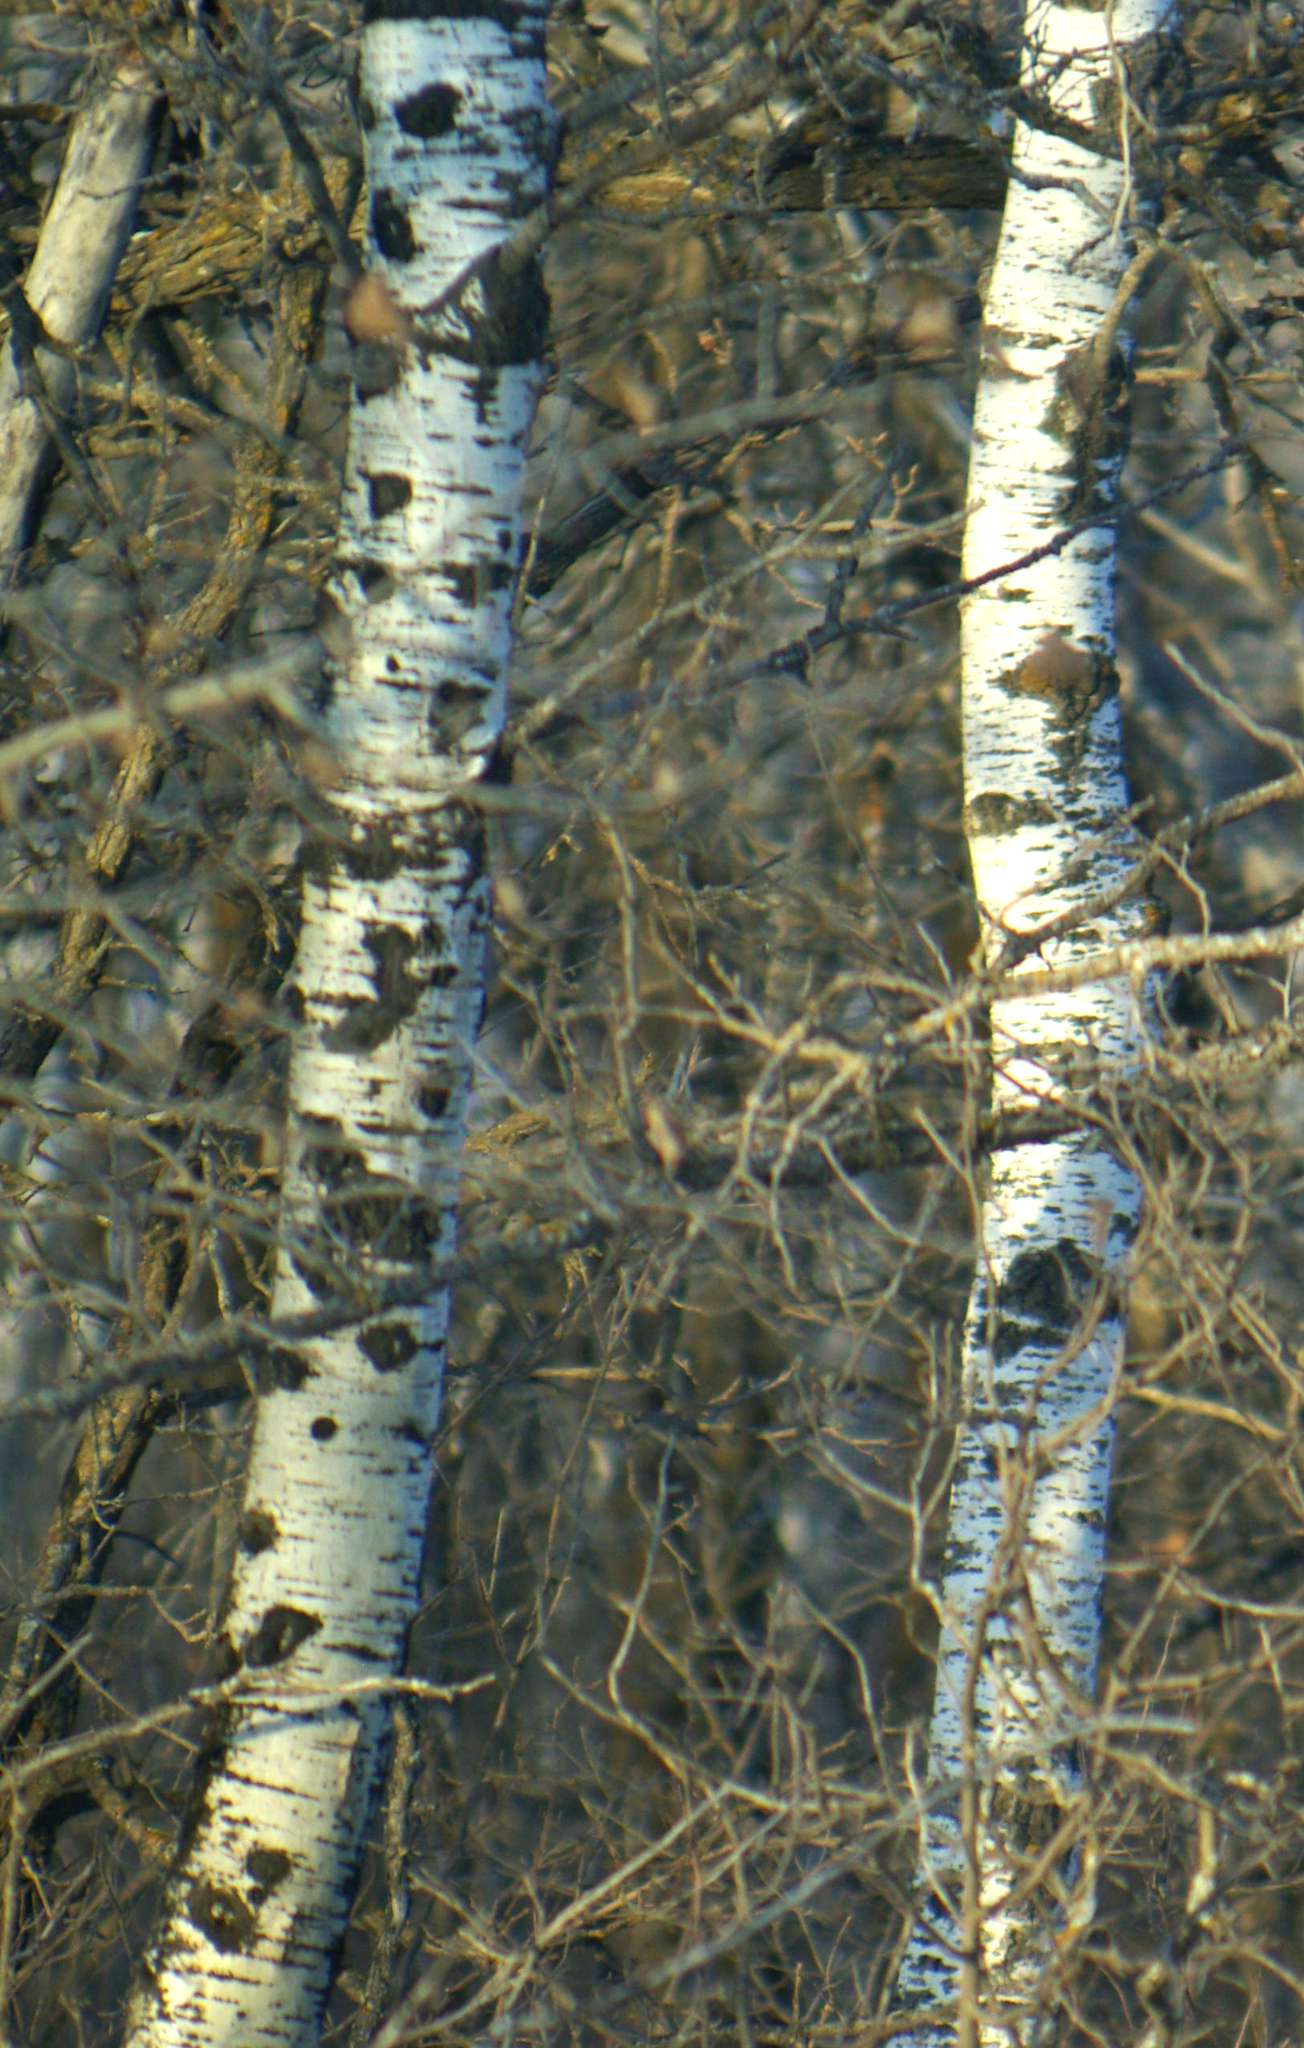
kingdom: Plantae
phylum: Tracheophyta
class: Magnoliopsida
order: Malpighiales
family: Salicaceae
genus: Populus
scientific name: Populus tremuloides
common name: Quaking aspen
